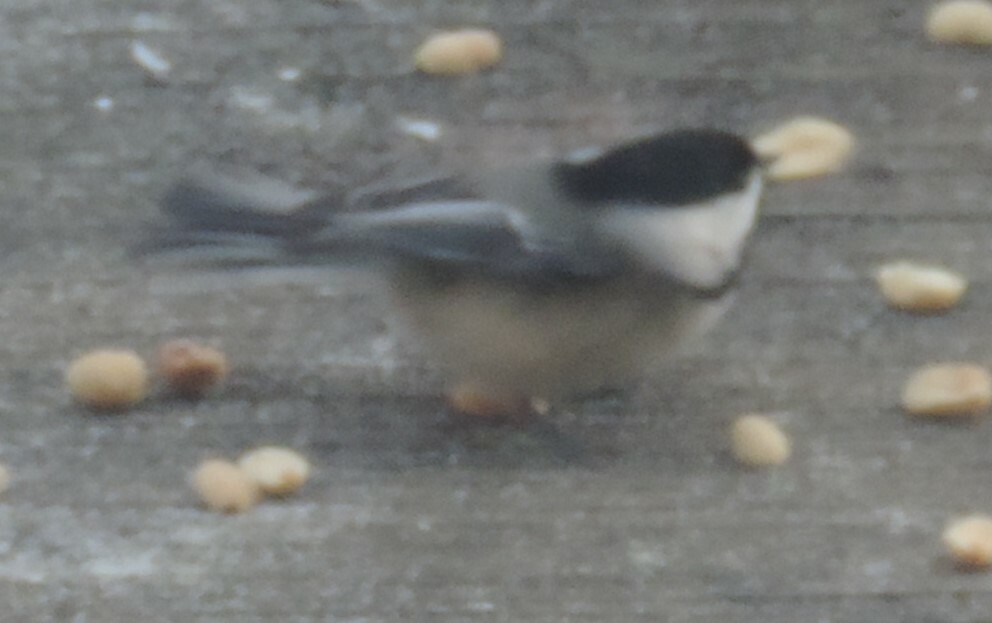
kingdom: Animalia
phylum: Chordata
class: Aves
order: Passeriformes
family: Paridae
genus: Poecile
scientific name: Poecile atricapillus
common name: Black-capped chickadee
